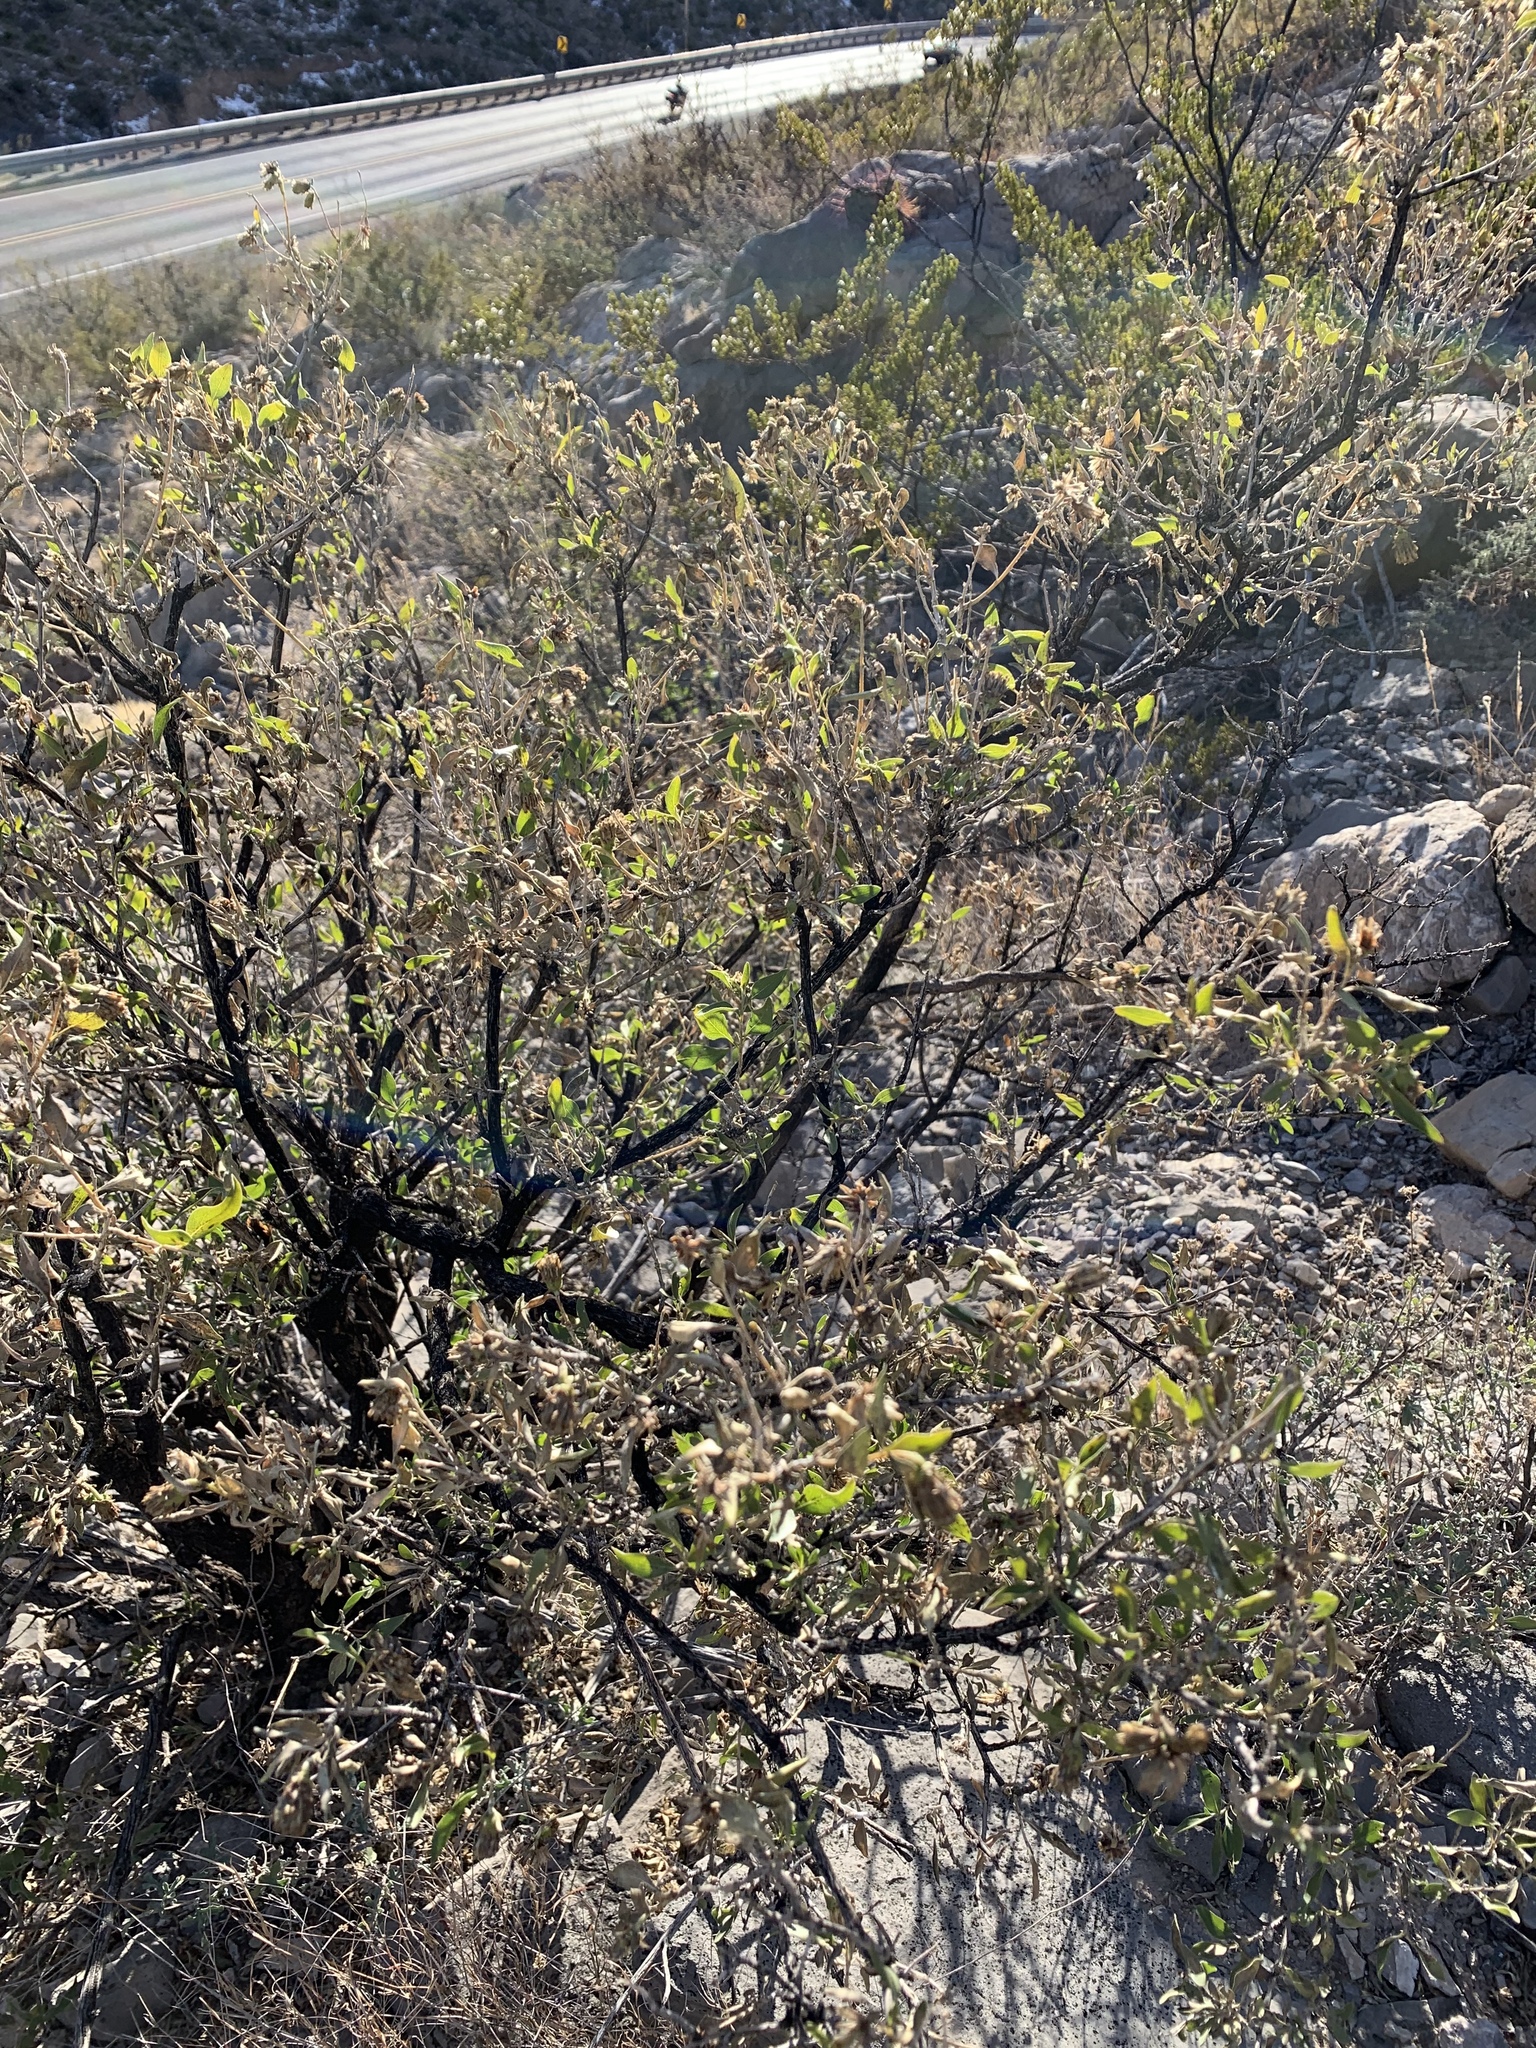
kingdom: Plantae
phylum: Tracheophyta
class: Magnoliopsida
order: Asterales
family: Asteraceae
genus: Flourensia
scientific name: Flourensia cernua
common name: Varnishbush
